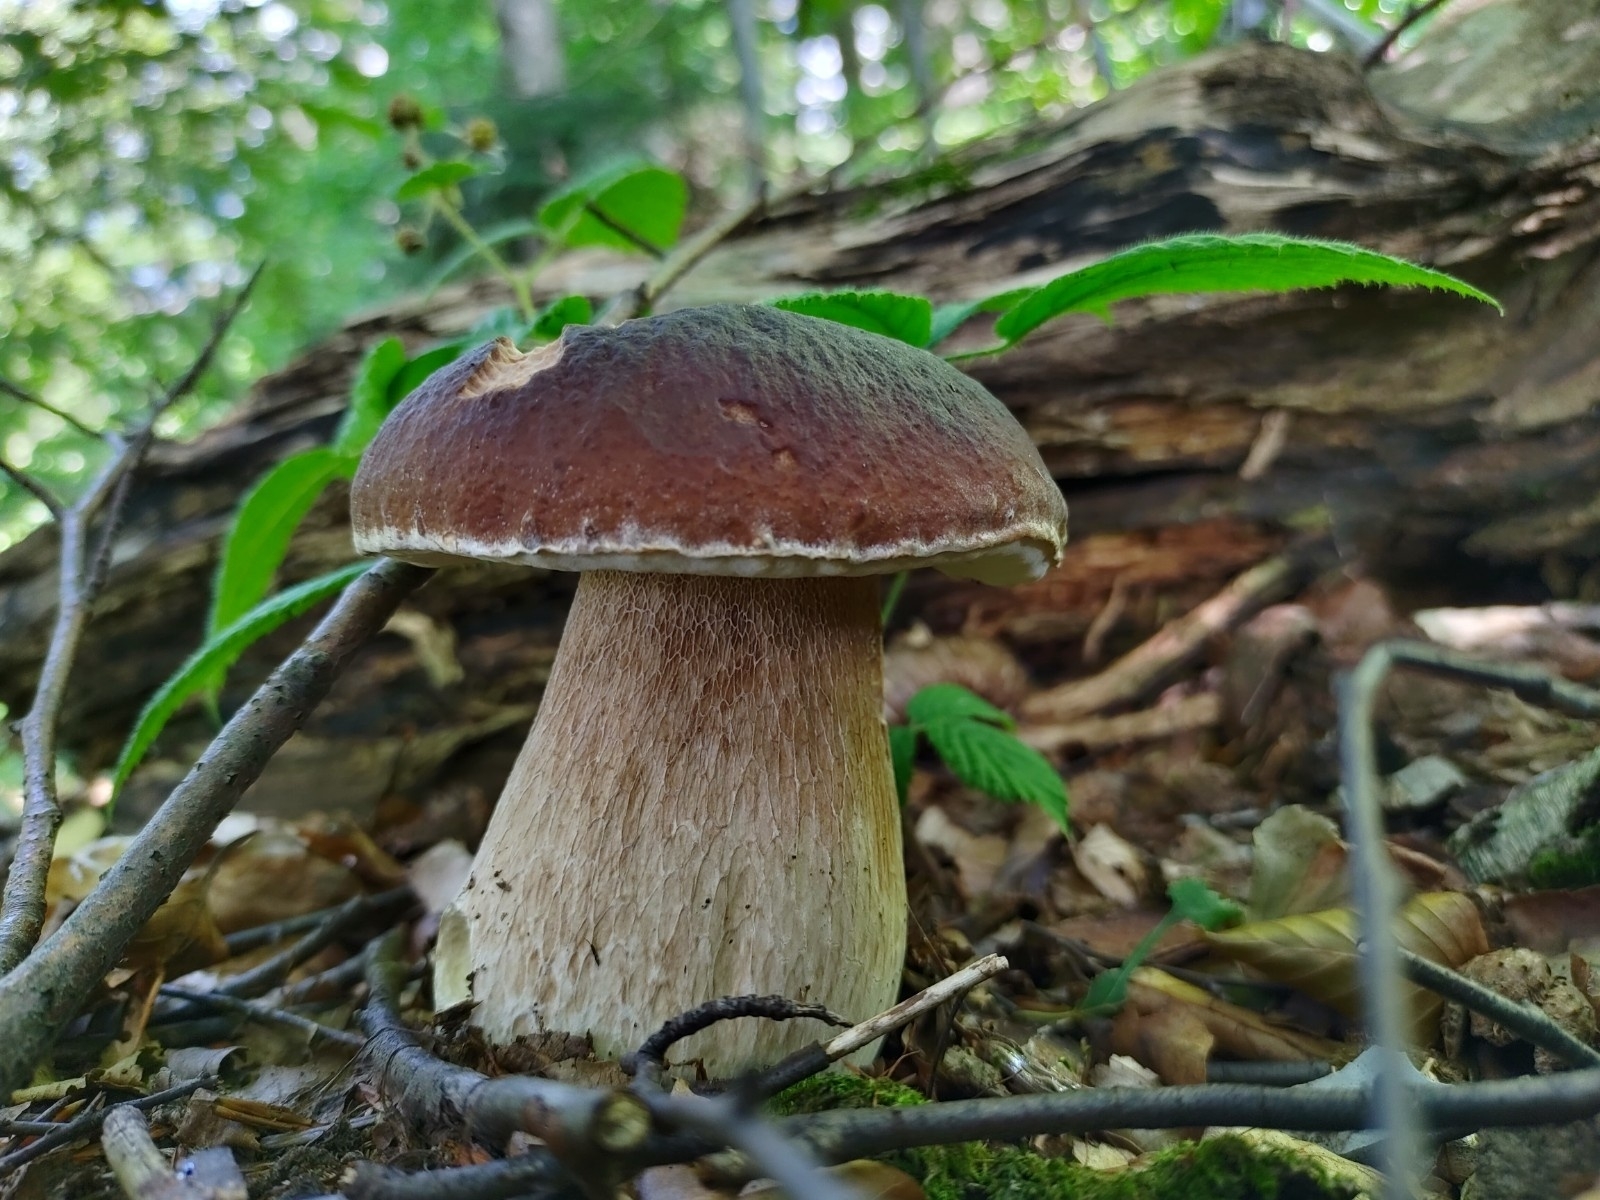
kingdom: Fungi
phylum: Basidiomycota
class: Agaricomycetes
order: Boletales
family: Boletaceae
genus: Boletus
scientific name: Boletus edulis
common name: Cep
